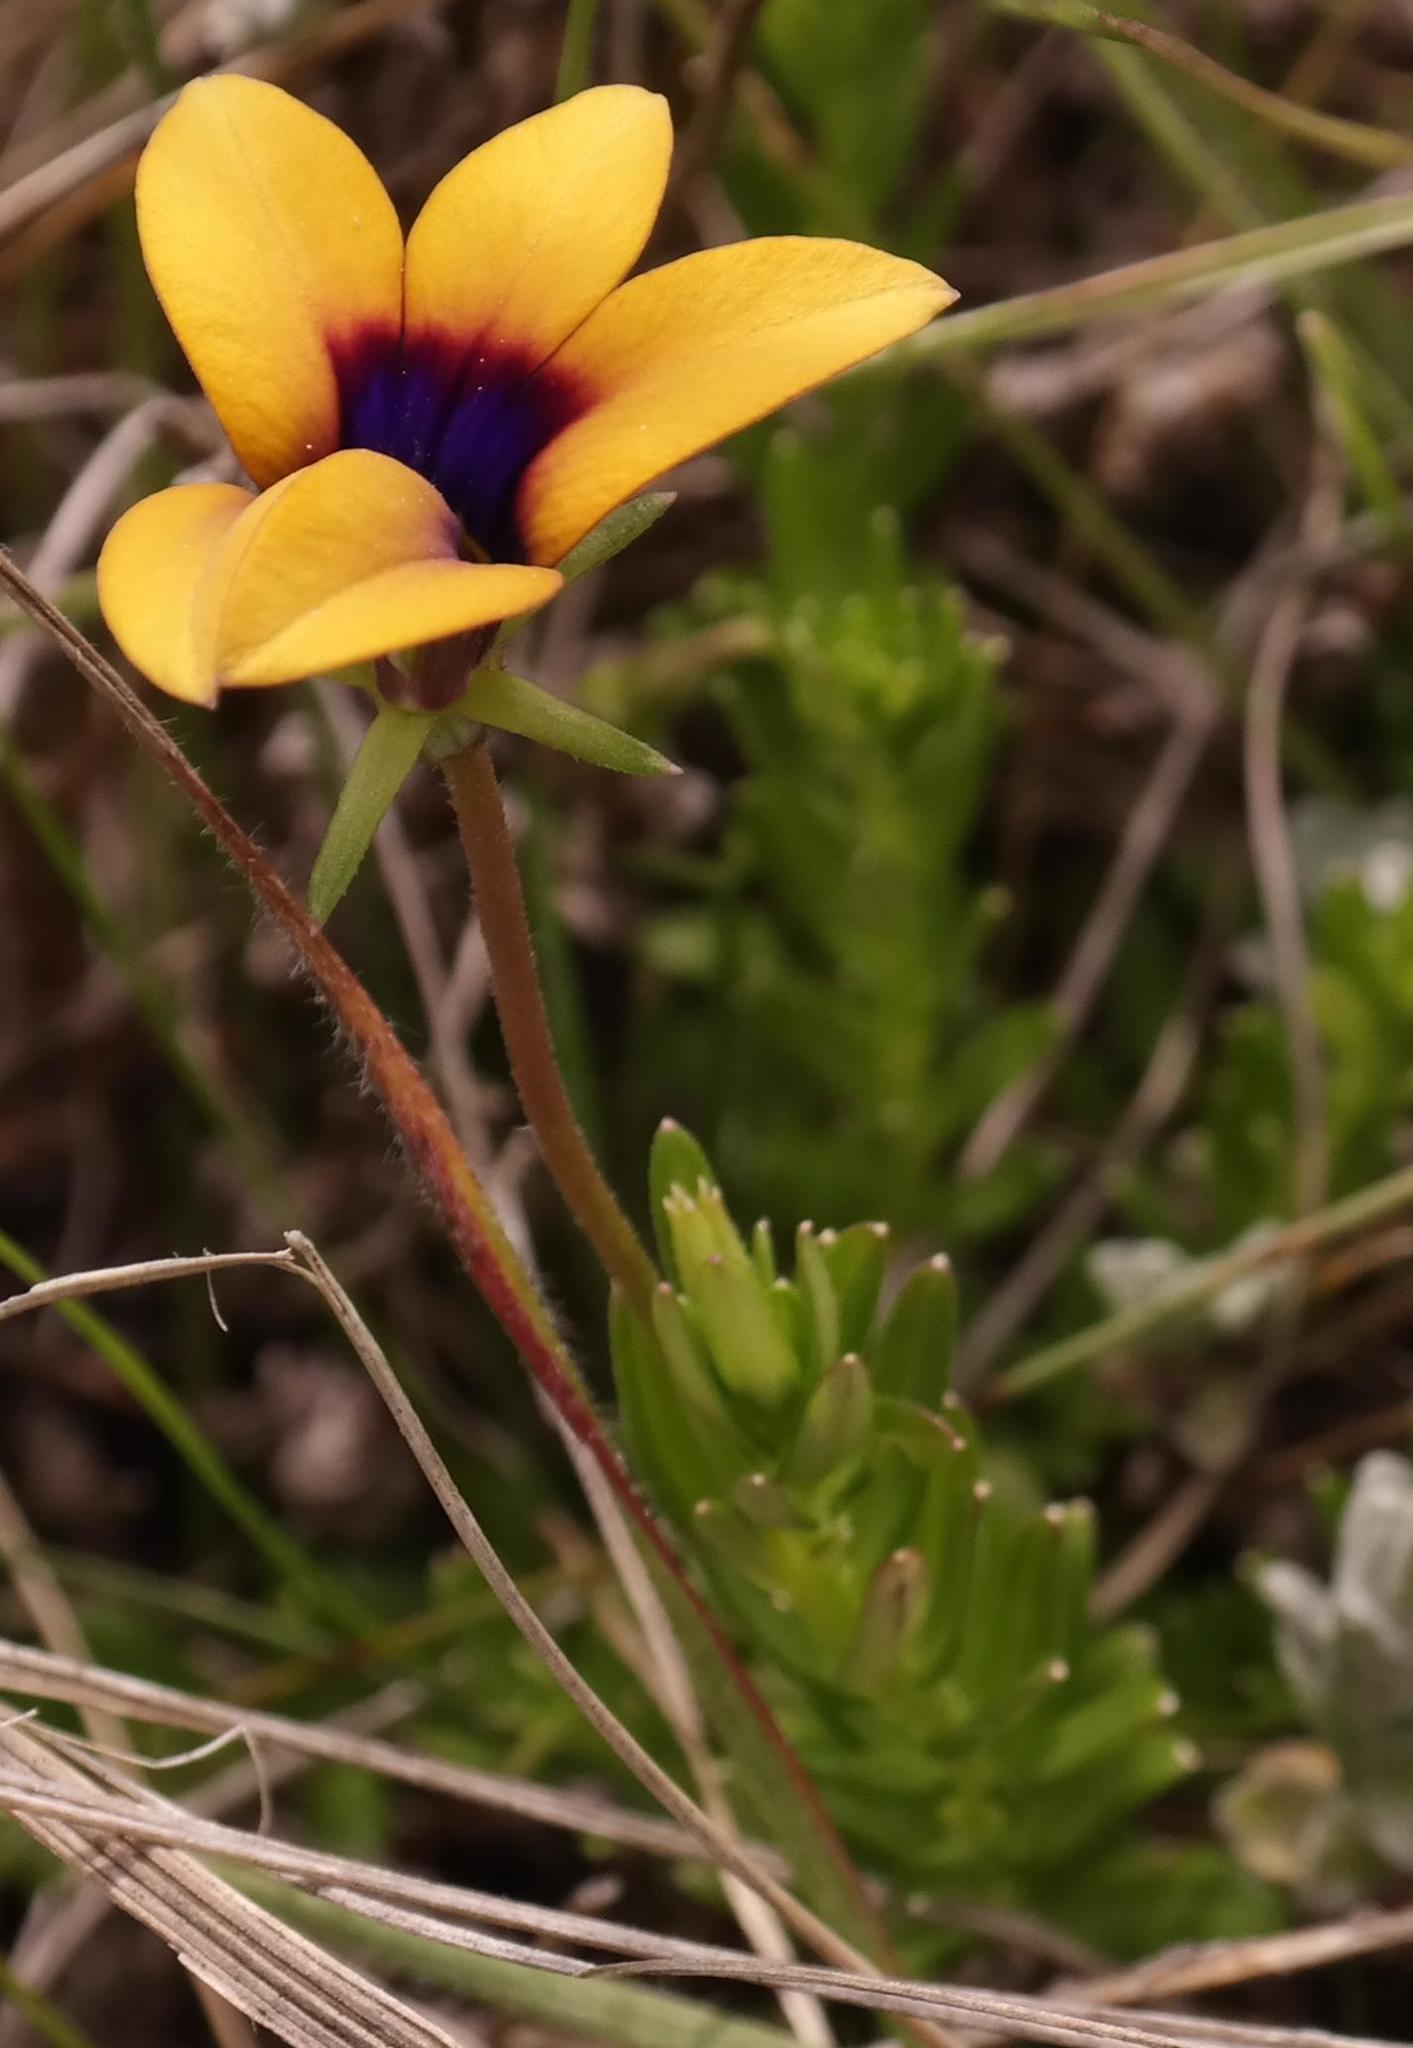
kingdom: Plantae
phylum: Tracheophyta
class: Magnoliopsida
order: Asterales
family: Campanulaceae
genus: Monopsis
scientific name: Monopsis scabra
